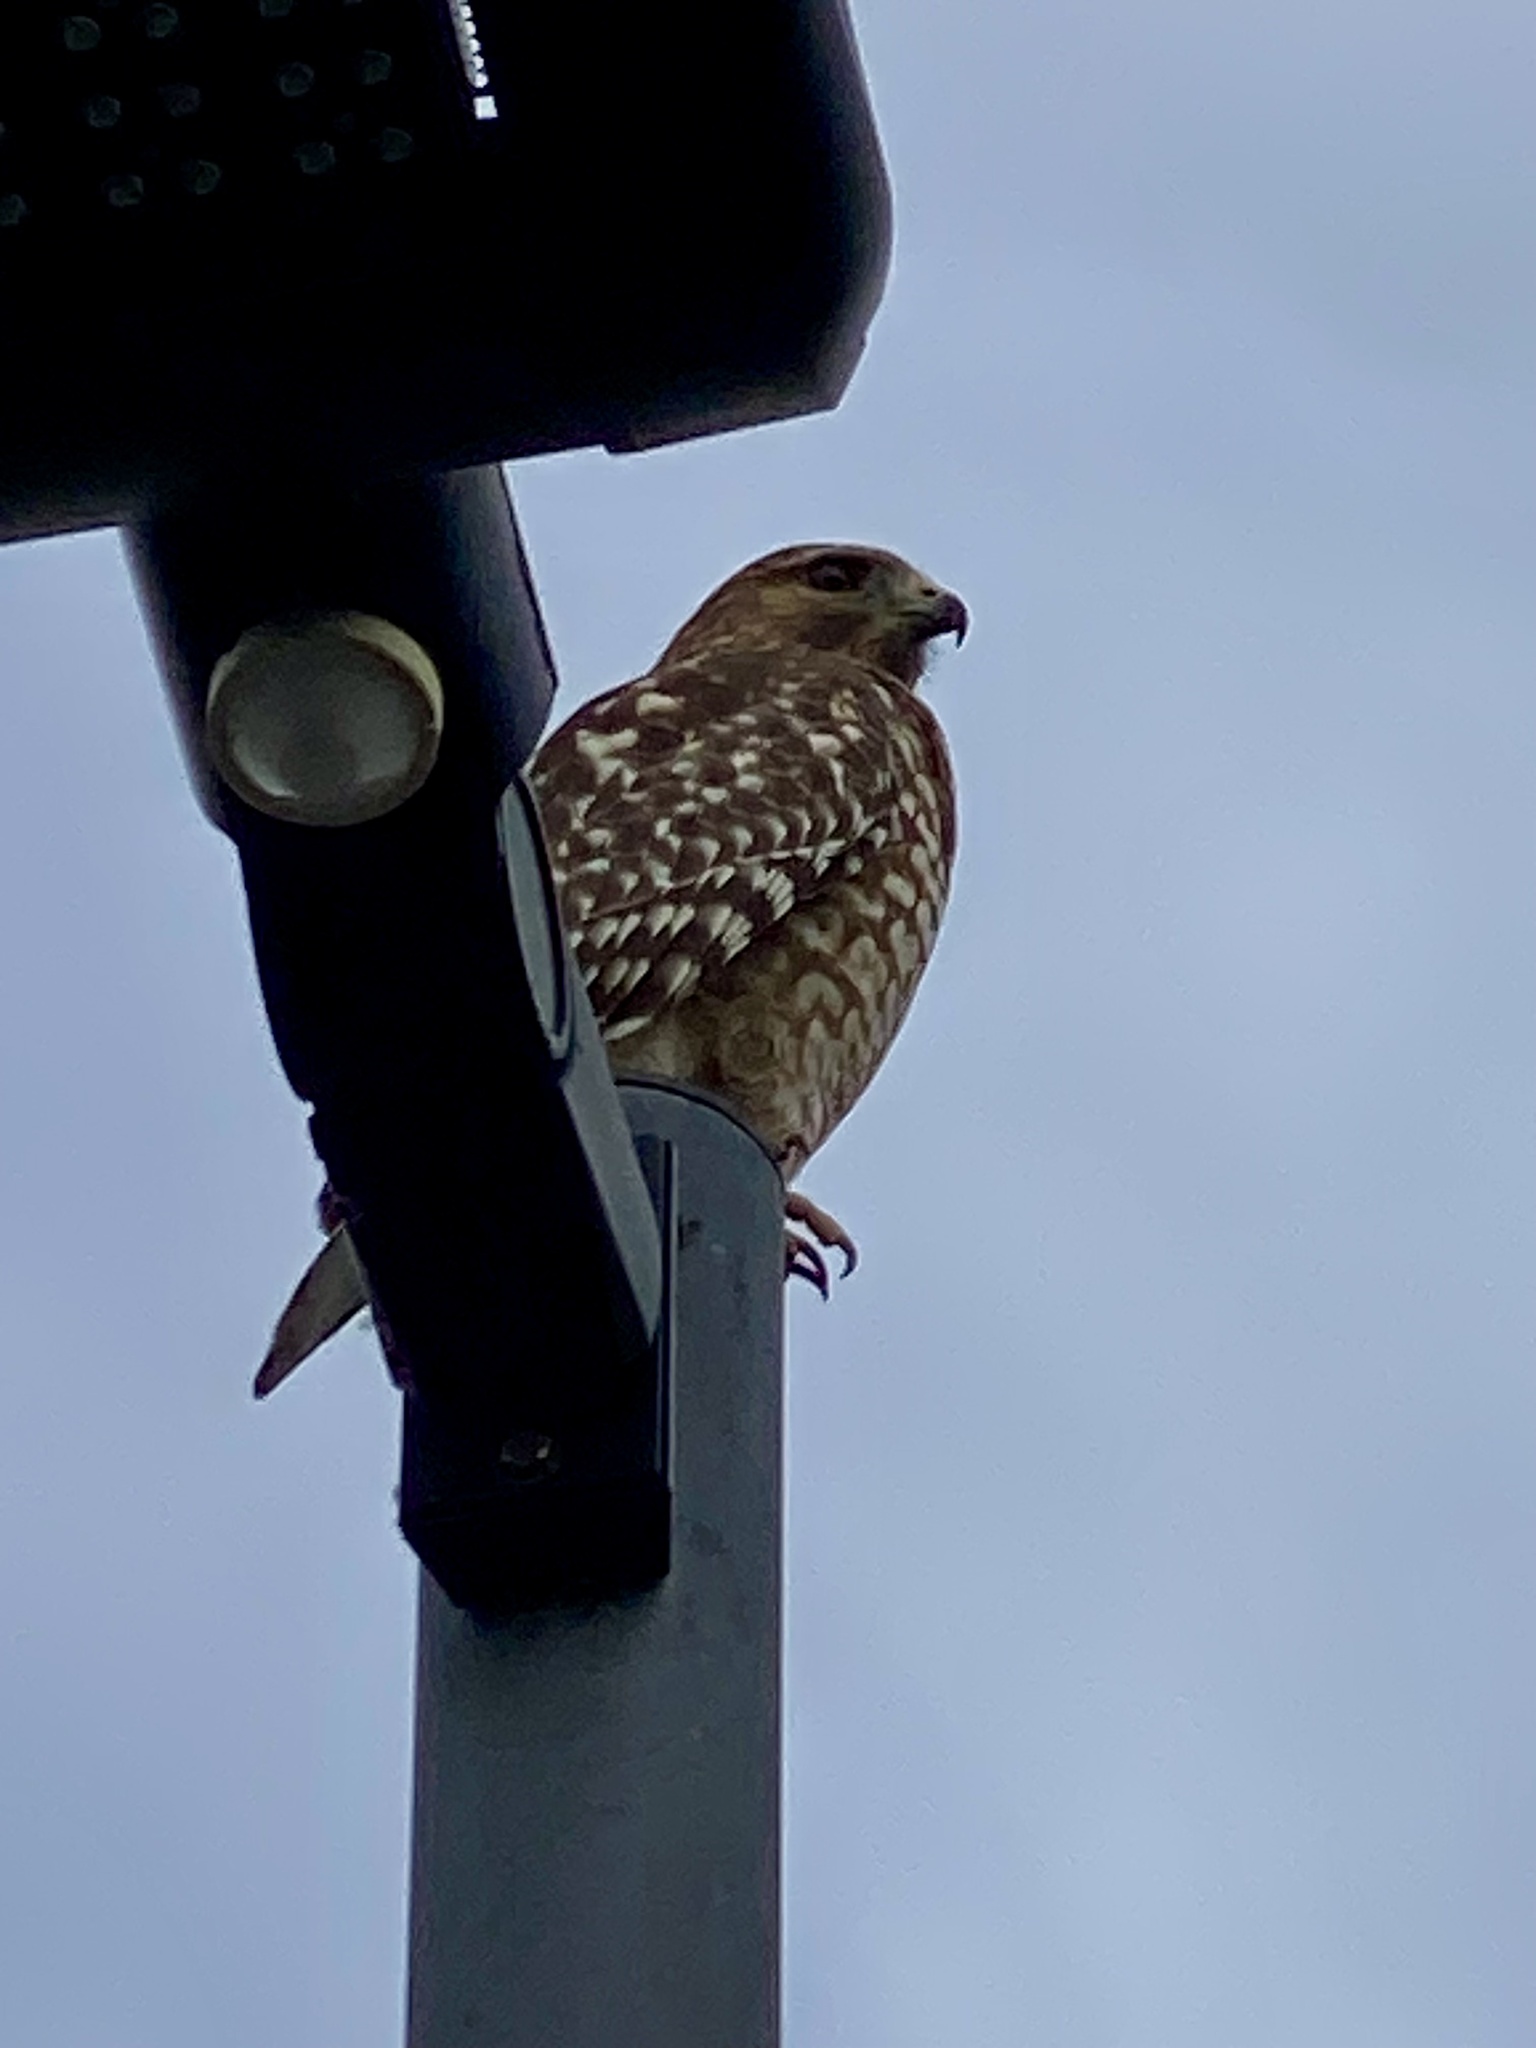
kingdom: Animalia
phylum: Chordata
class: Aves
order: Accipitriformes
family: Accipitridae
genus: Buteo
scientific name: Buteo lineatus
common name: Red-shouldered hawk
